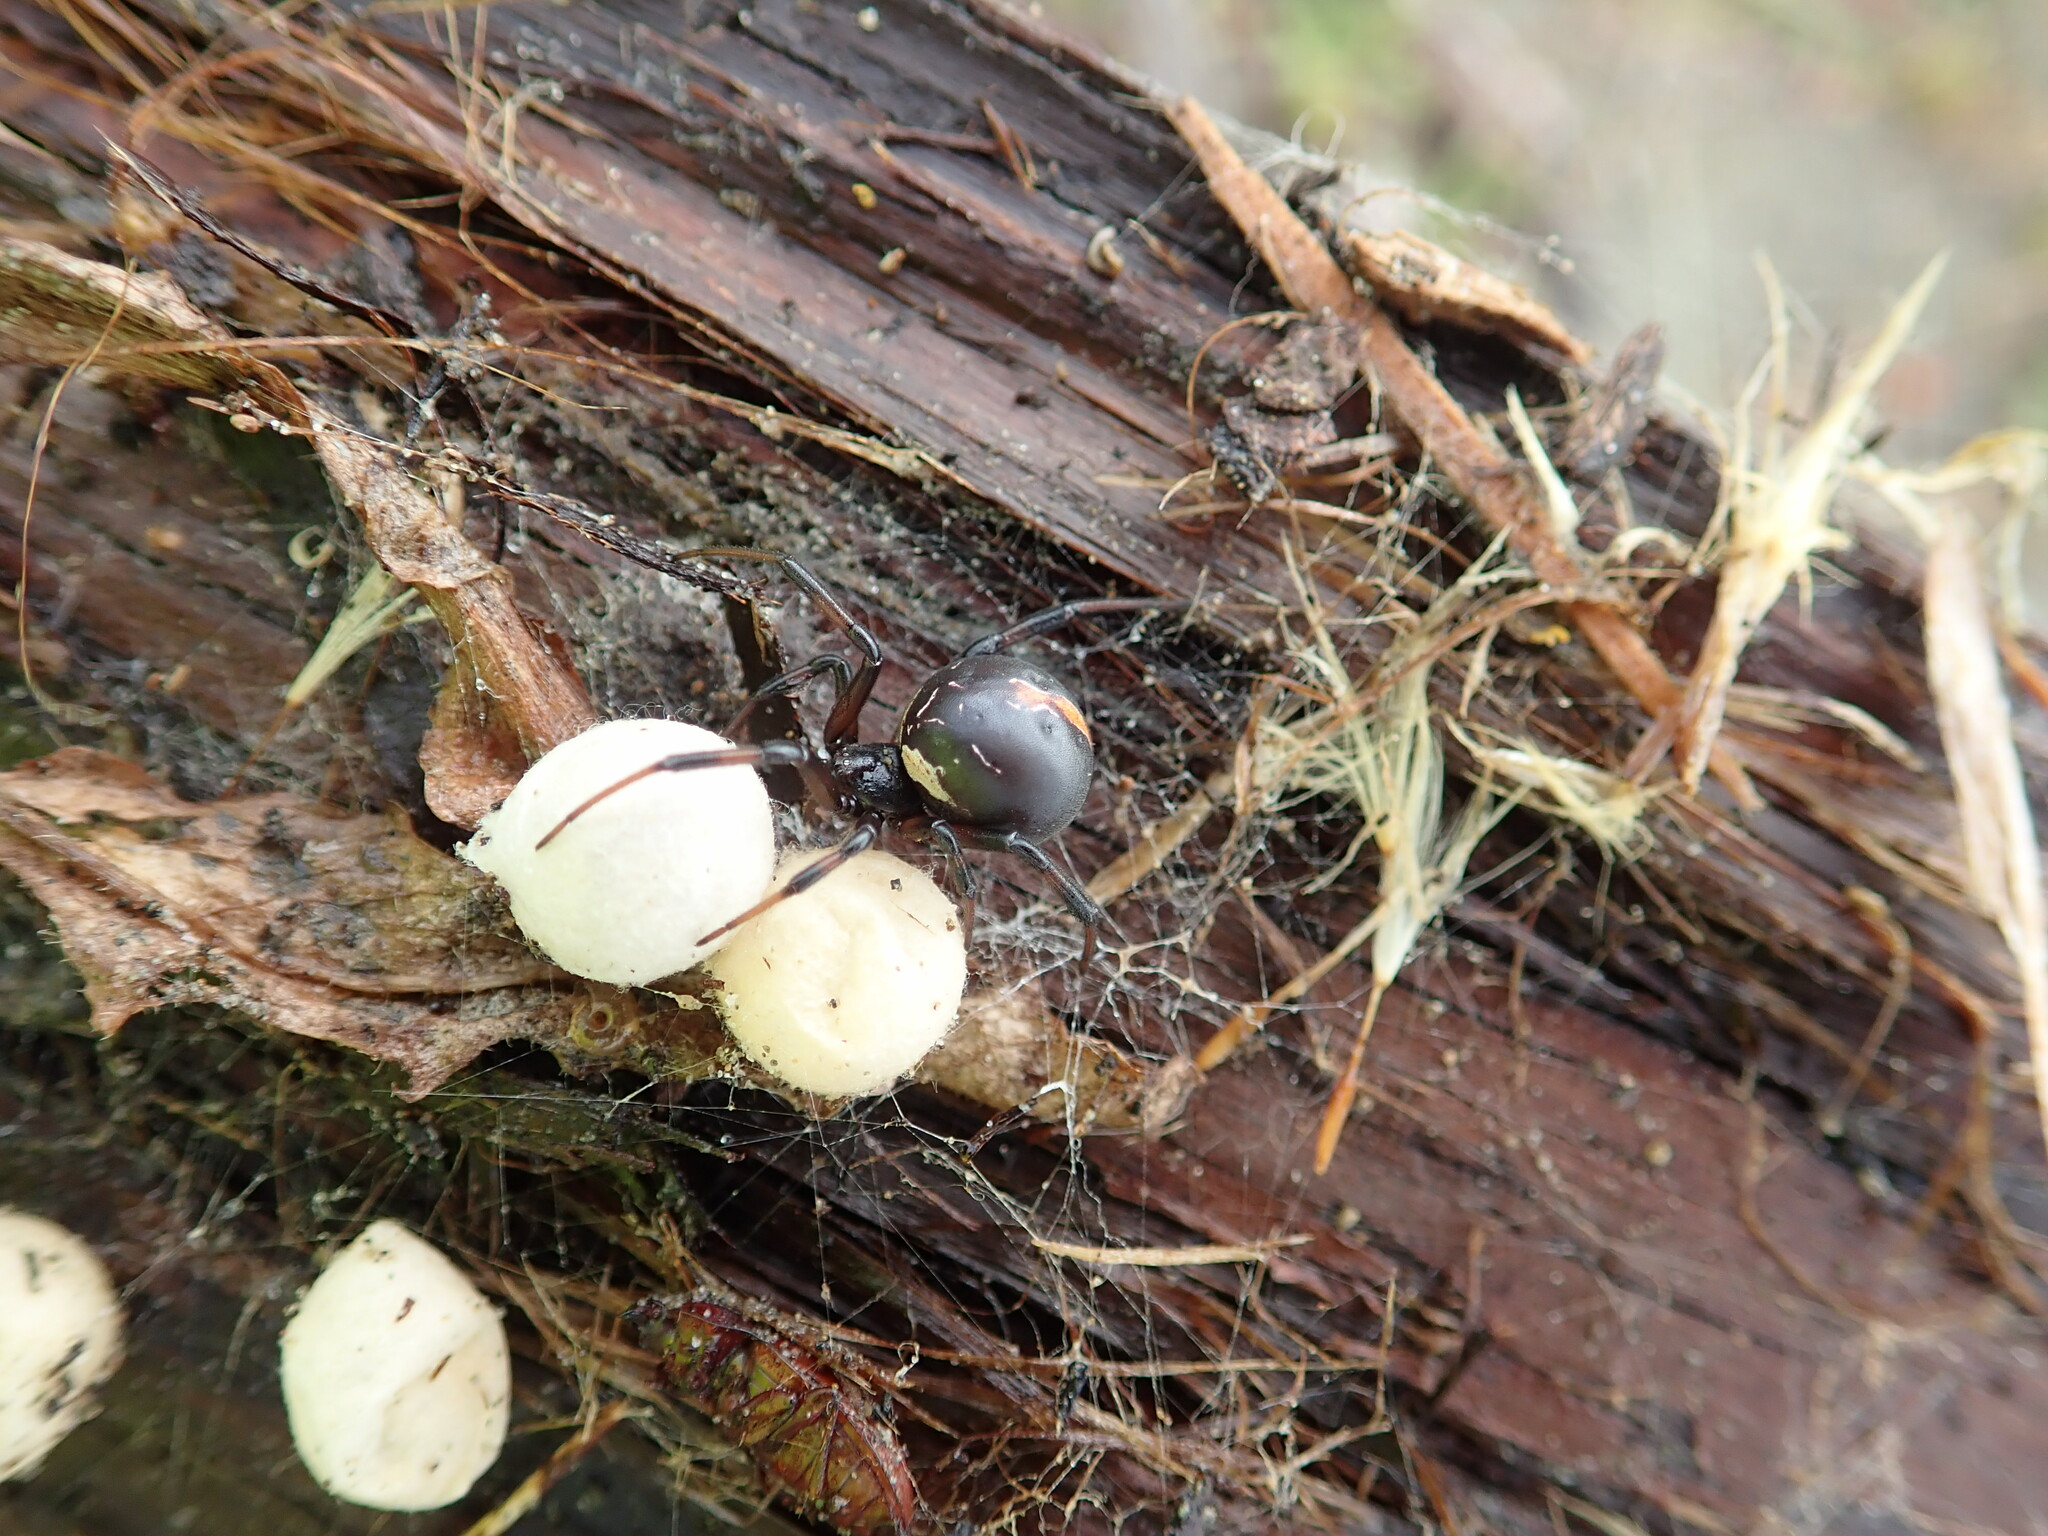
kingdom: Animalia
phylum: Arthropoda
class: Arachnida
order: Araneae
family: Theridiidae
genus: Latrodectus
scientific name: Latrodectus katipo
